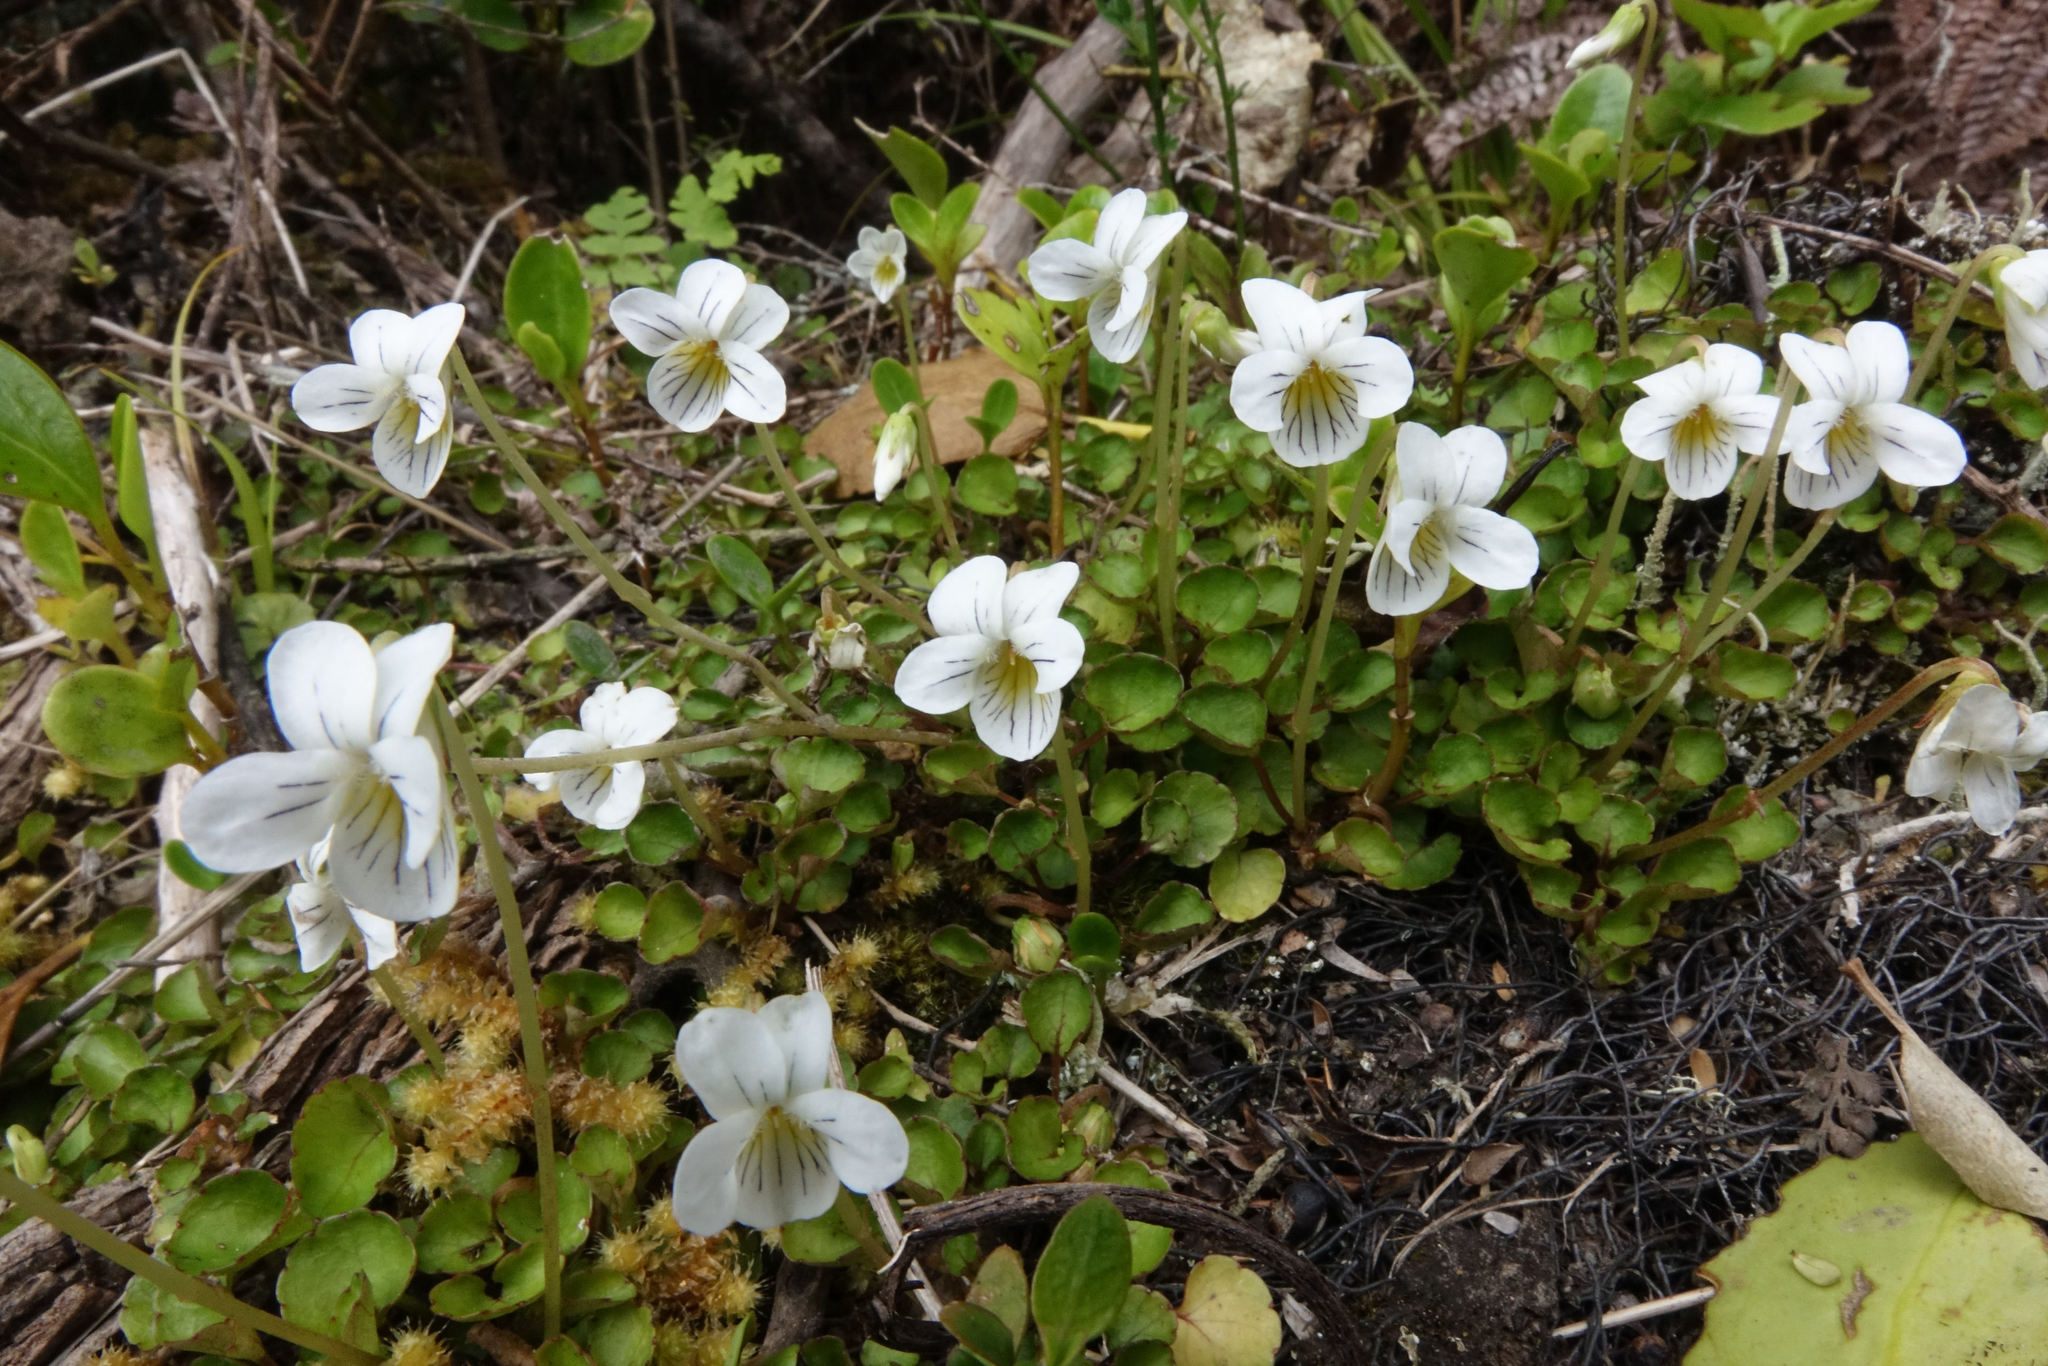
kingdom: Plantae
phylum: Tracheophyta
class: Magnoliopsida
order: Malpighiales
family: Violaceae
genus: Viola
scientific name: Viola filicaulis
